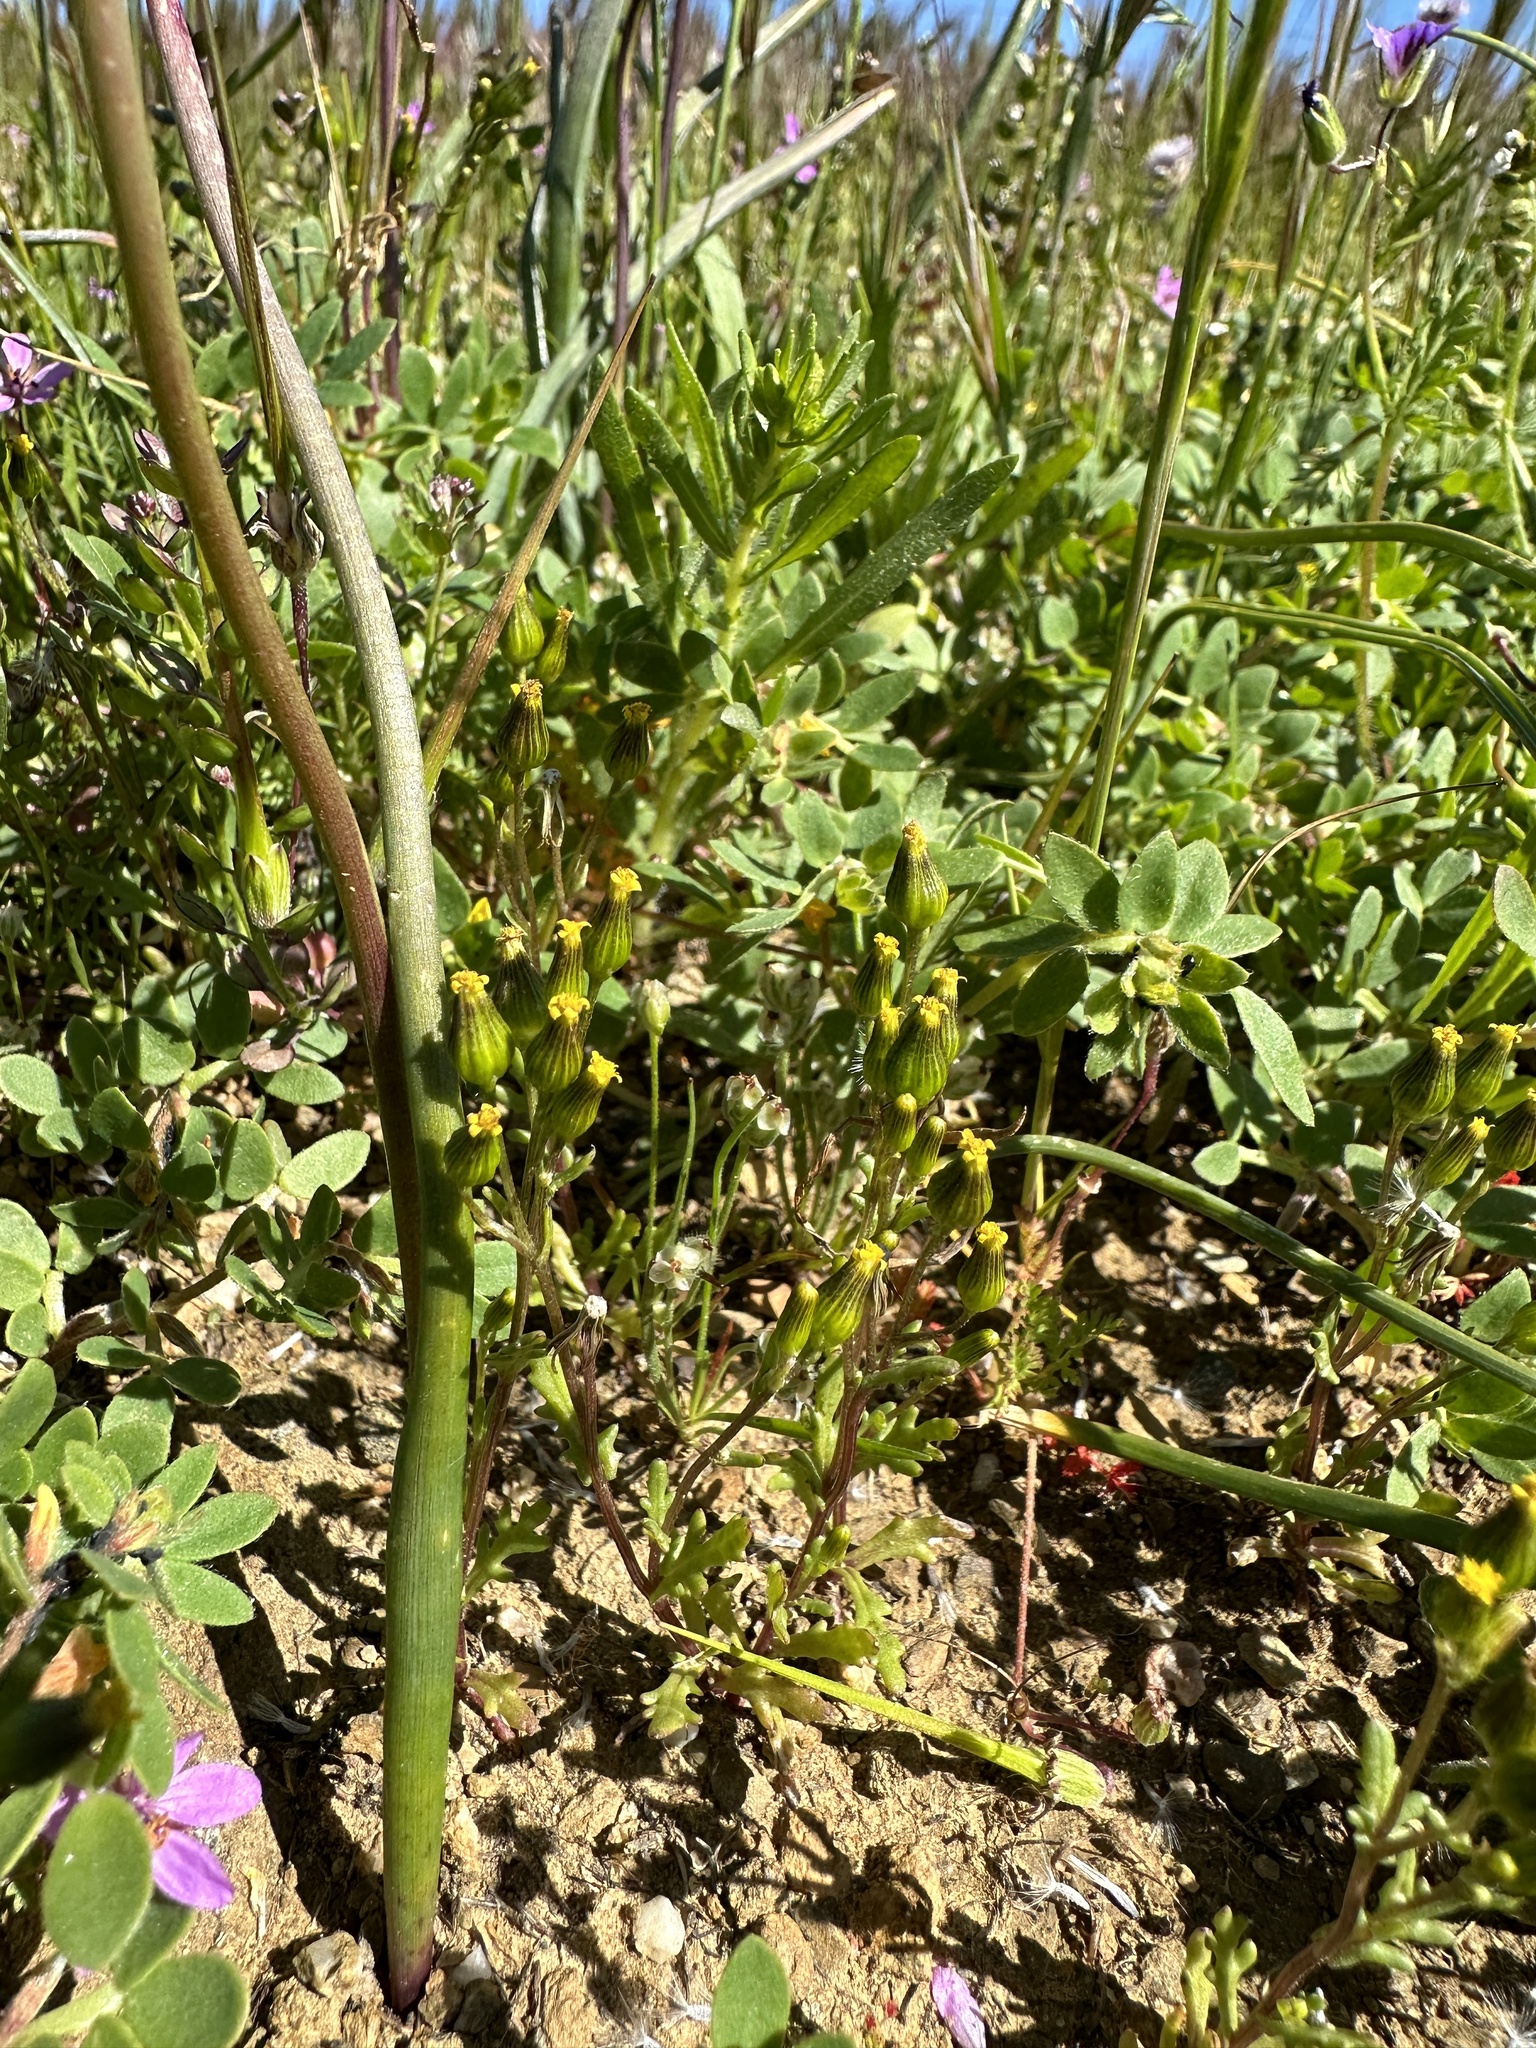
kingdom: Plantae
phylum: Tracheophyta
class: Magnoliopsida
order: Asterales
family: Asteraceae
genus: Senecio
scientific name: Senecio aphanactis
